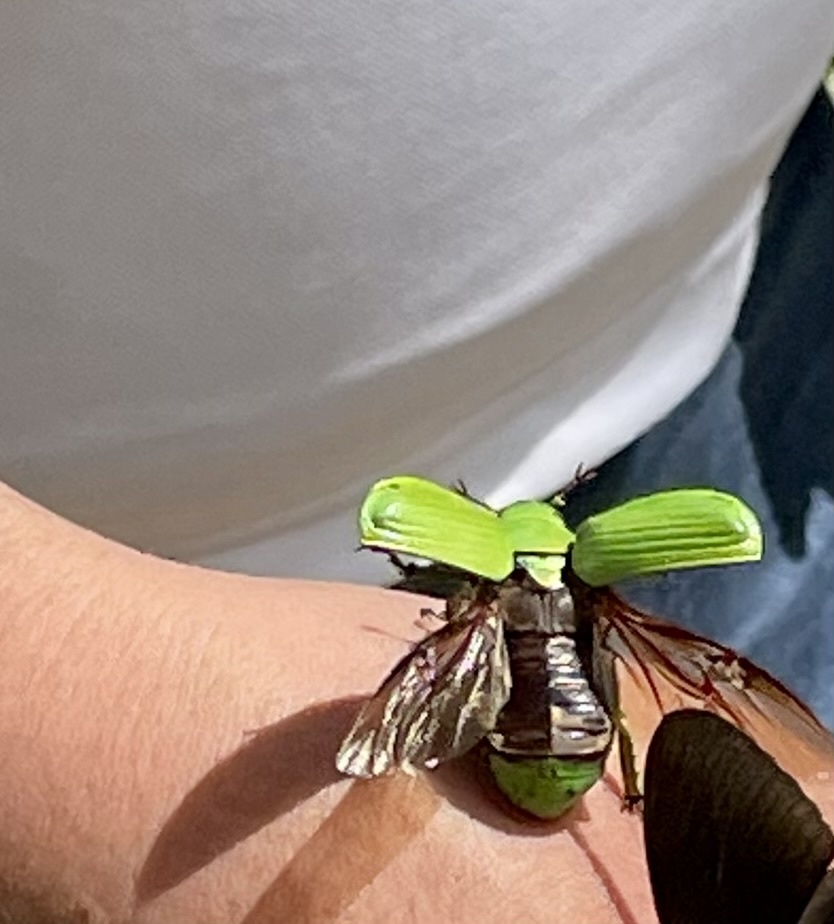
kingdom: Animalia
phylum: Arthropoda
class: Insecta
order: Coleoptera
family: Scarabaeidae
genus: Chrysina
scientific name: Chrysina psittacina
